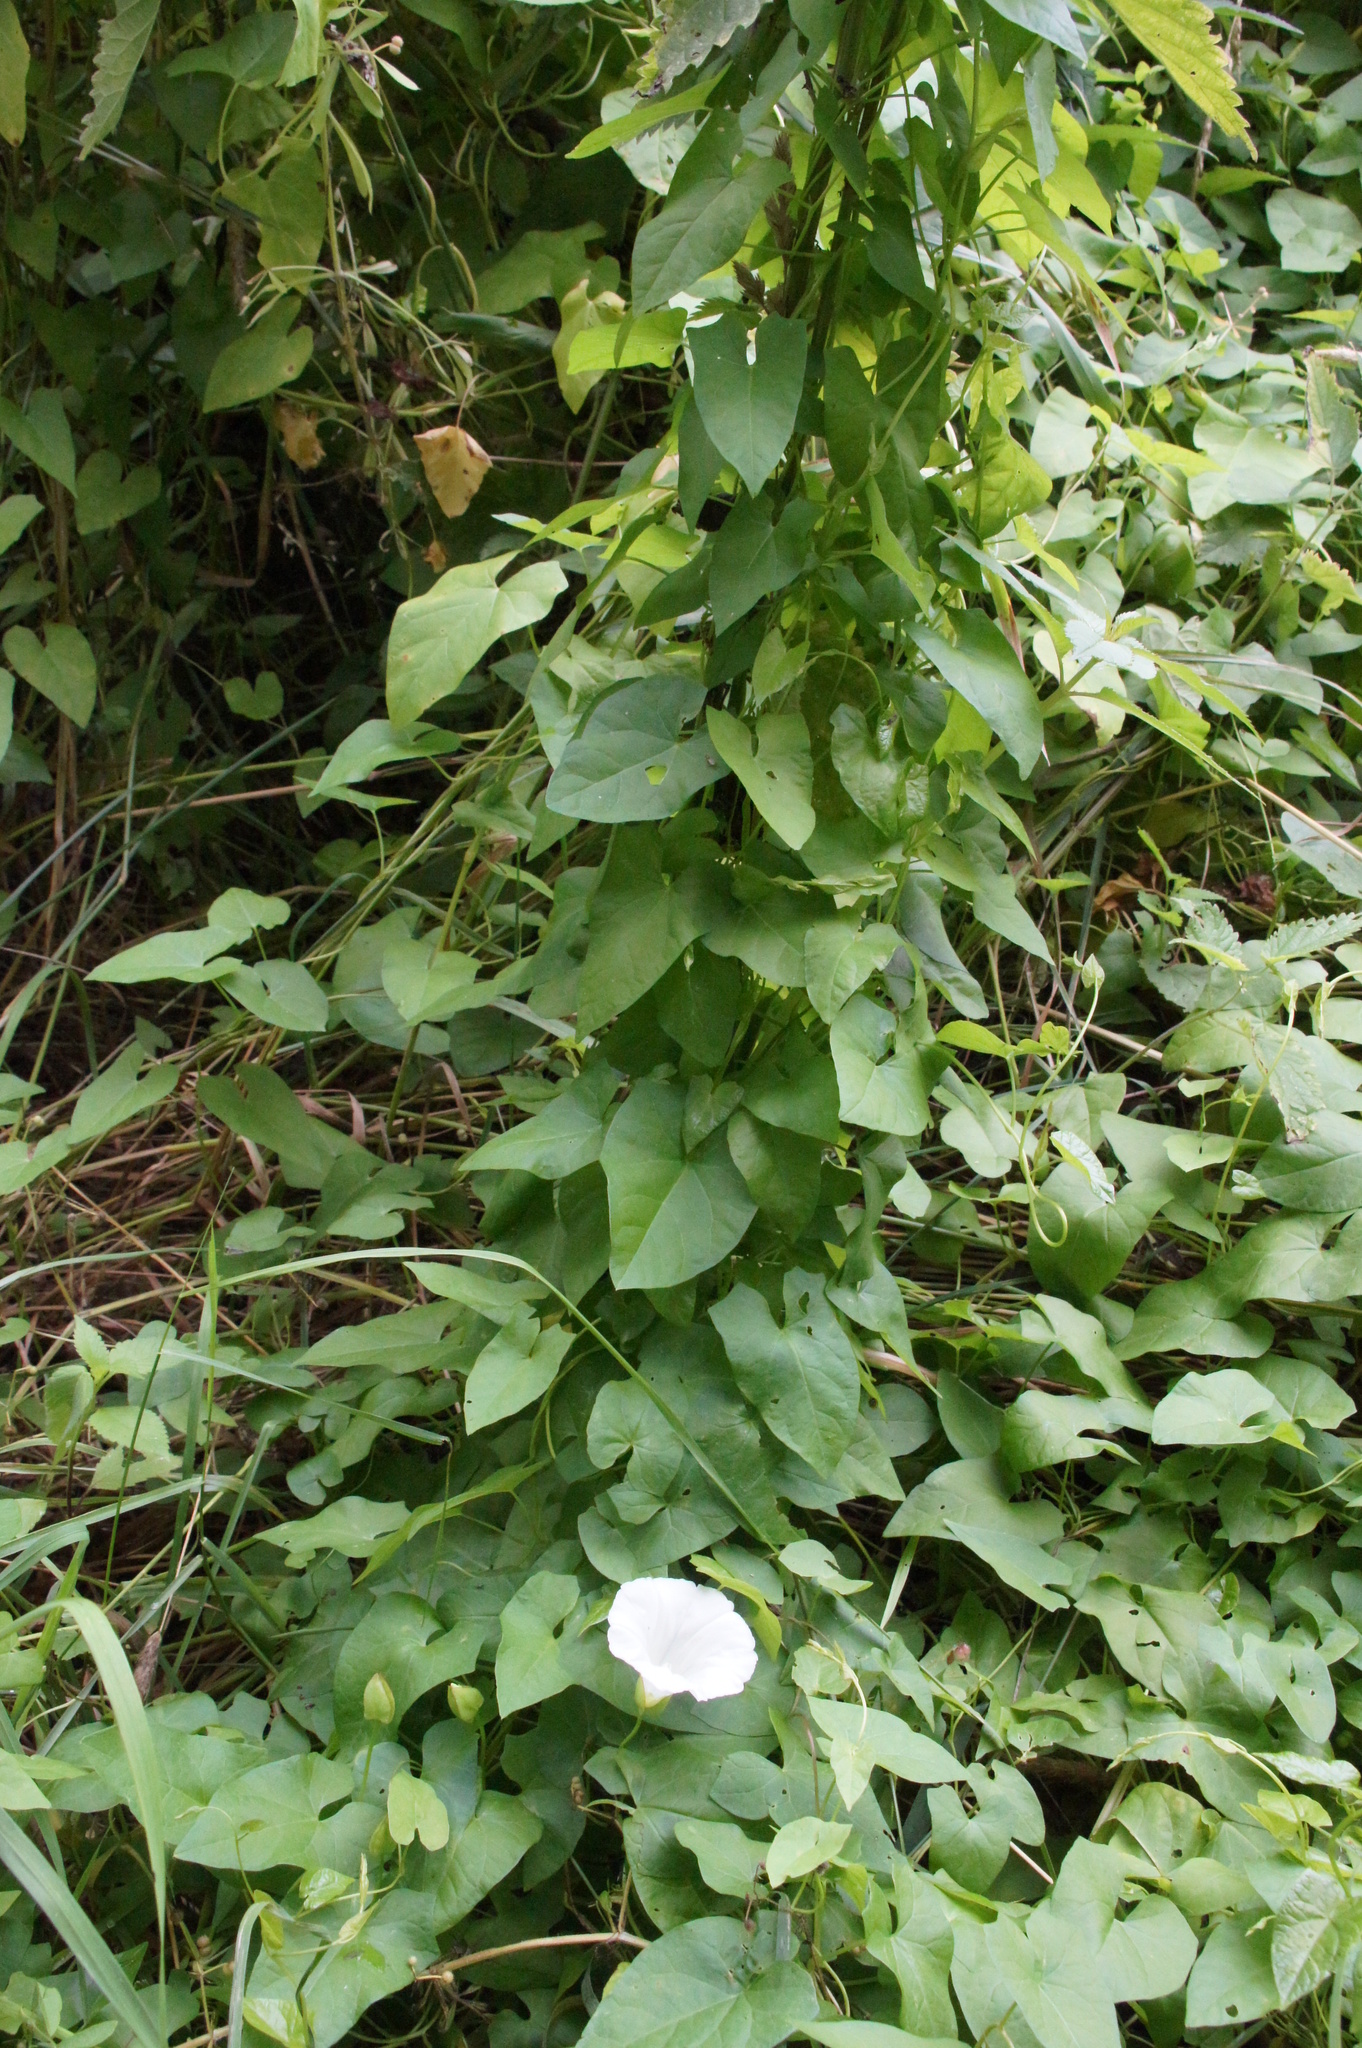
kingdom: Plantae
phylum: Tracheophyta
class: Magnoliopsida
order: Solanales
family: Convolvulaceae
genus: Calystegia
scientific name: Calystegia sepium
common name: Hedge bindweed
